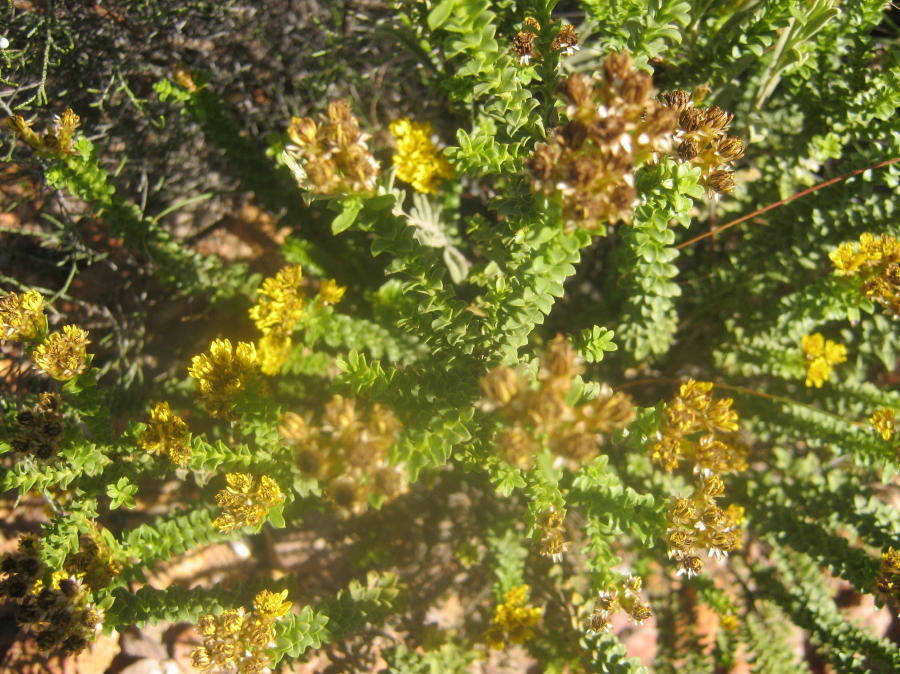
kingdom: Plantae
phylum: Tracheophyta
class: Magnoliopsida
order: Asterales
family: Asteraceae
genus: Oedera
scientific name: Oedera squarrosa
